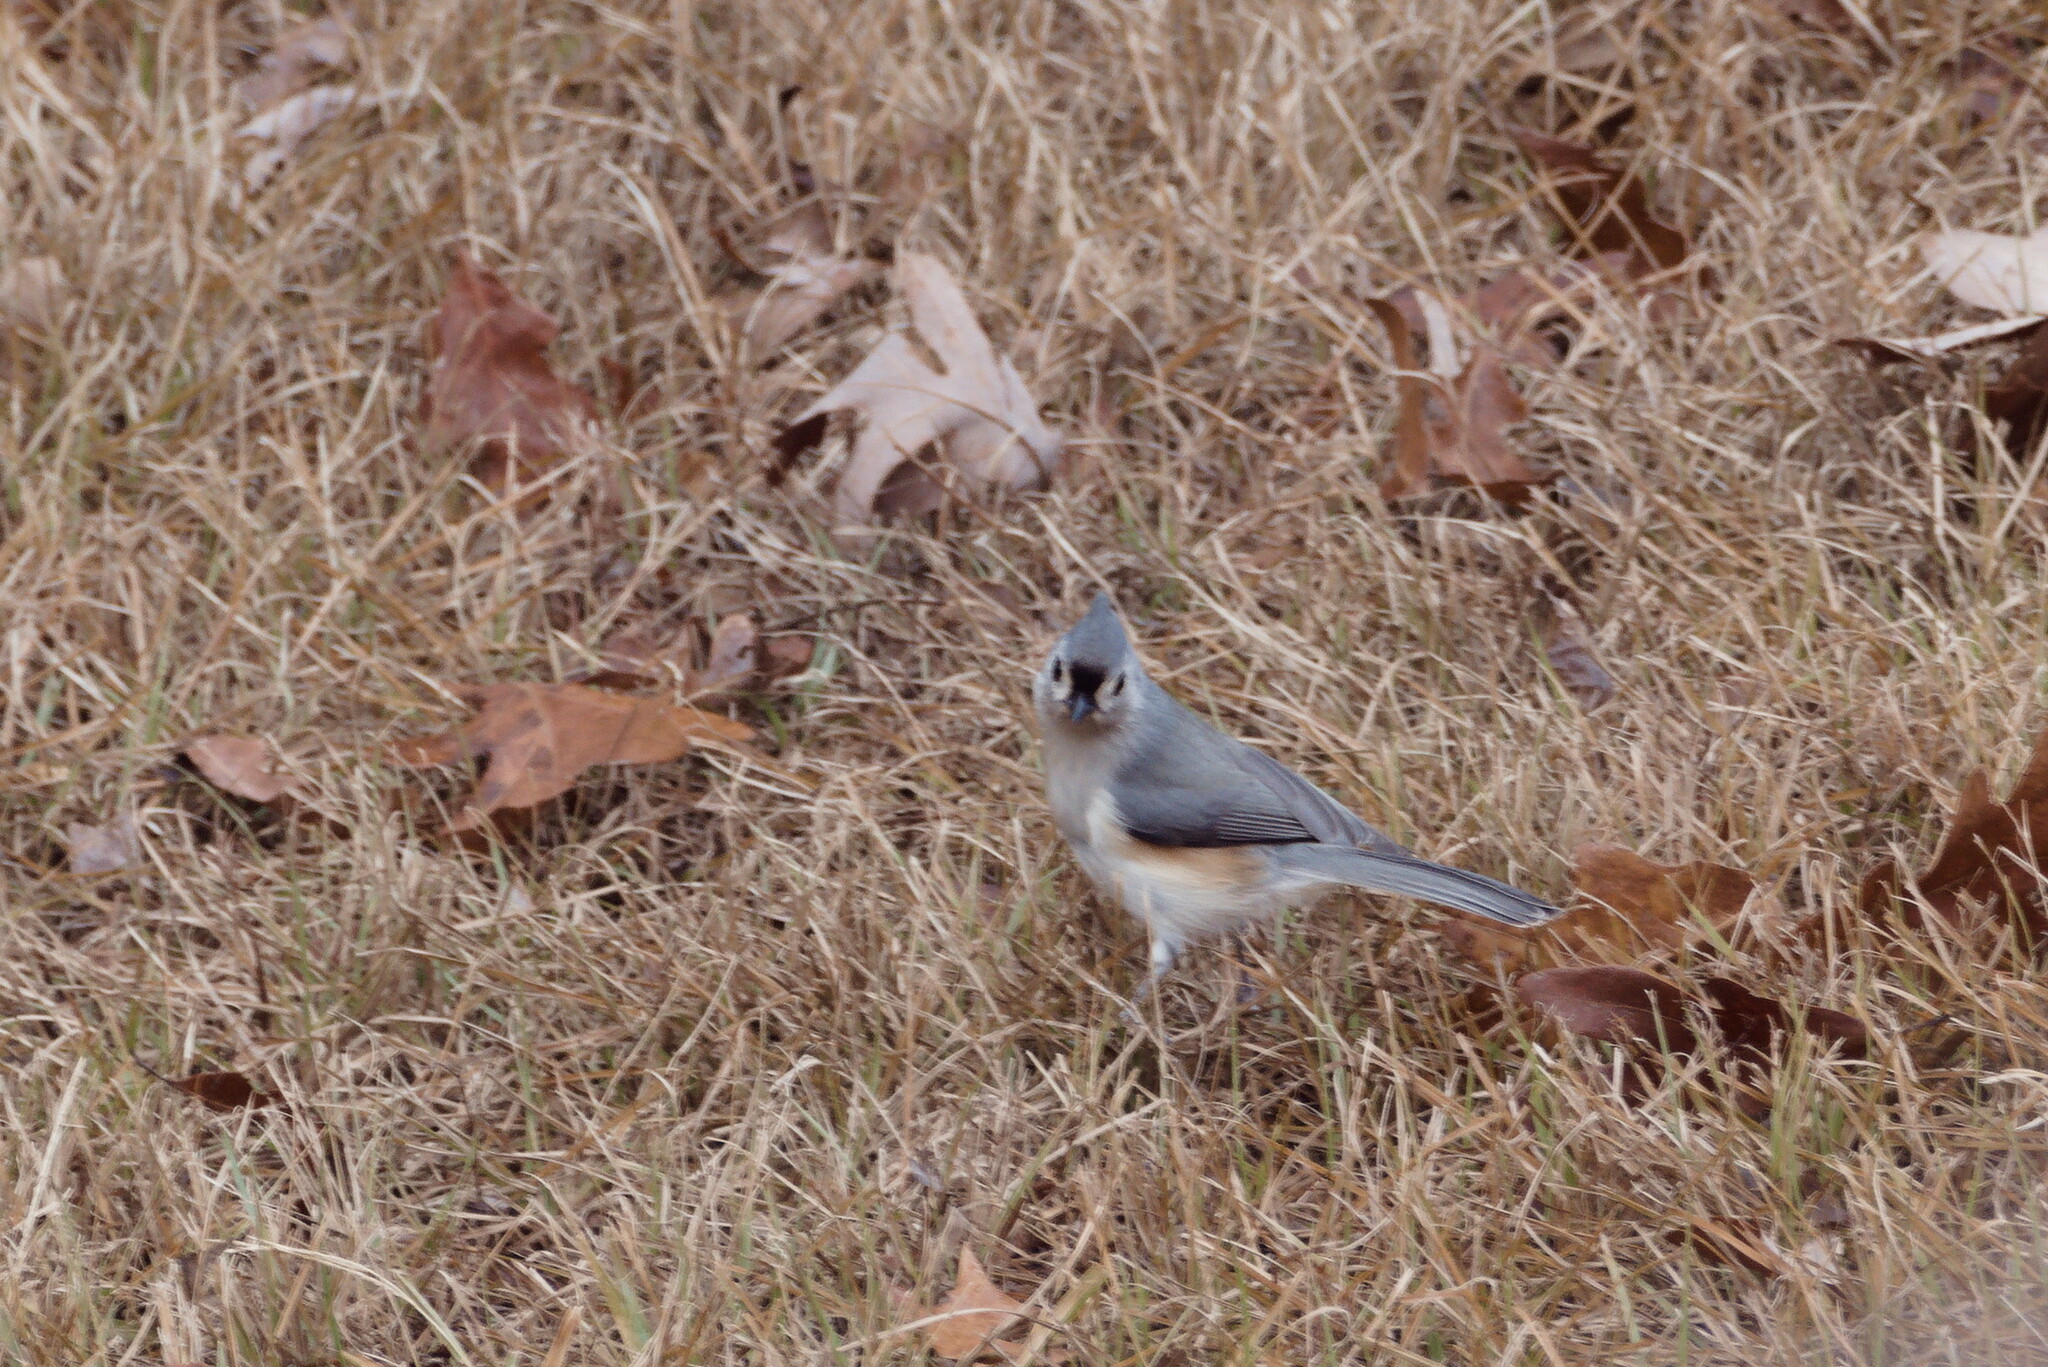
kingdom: Animalia
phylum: Chordata
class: Aves
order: Passeriformes
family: Paridae
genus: Baeolophus
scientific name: Baeolophus bicolor
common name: Tufted titmouse
